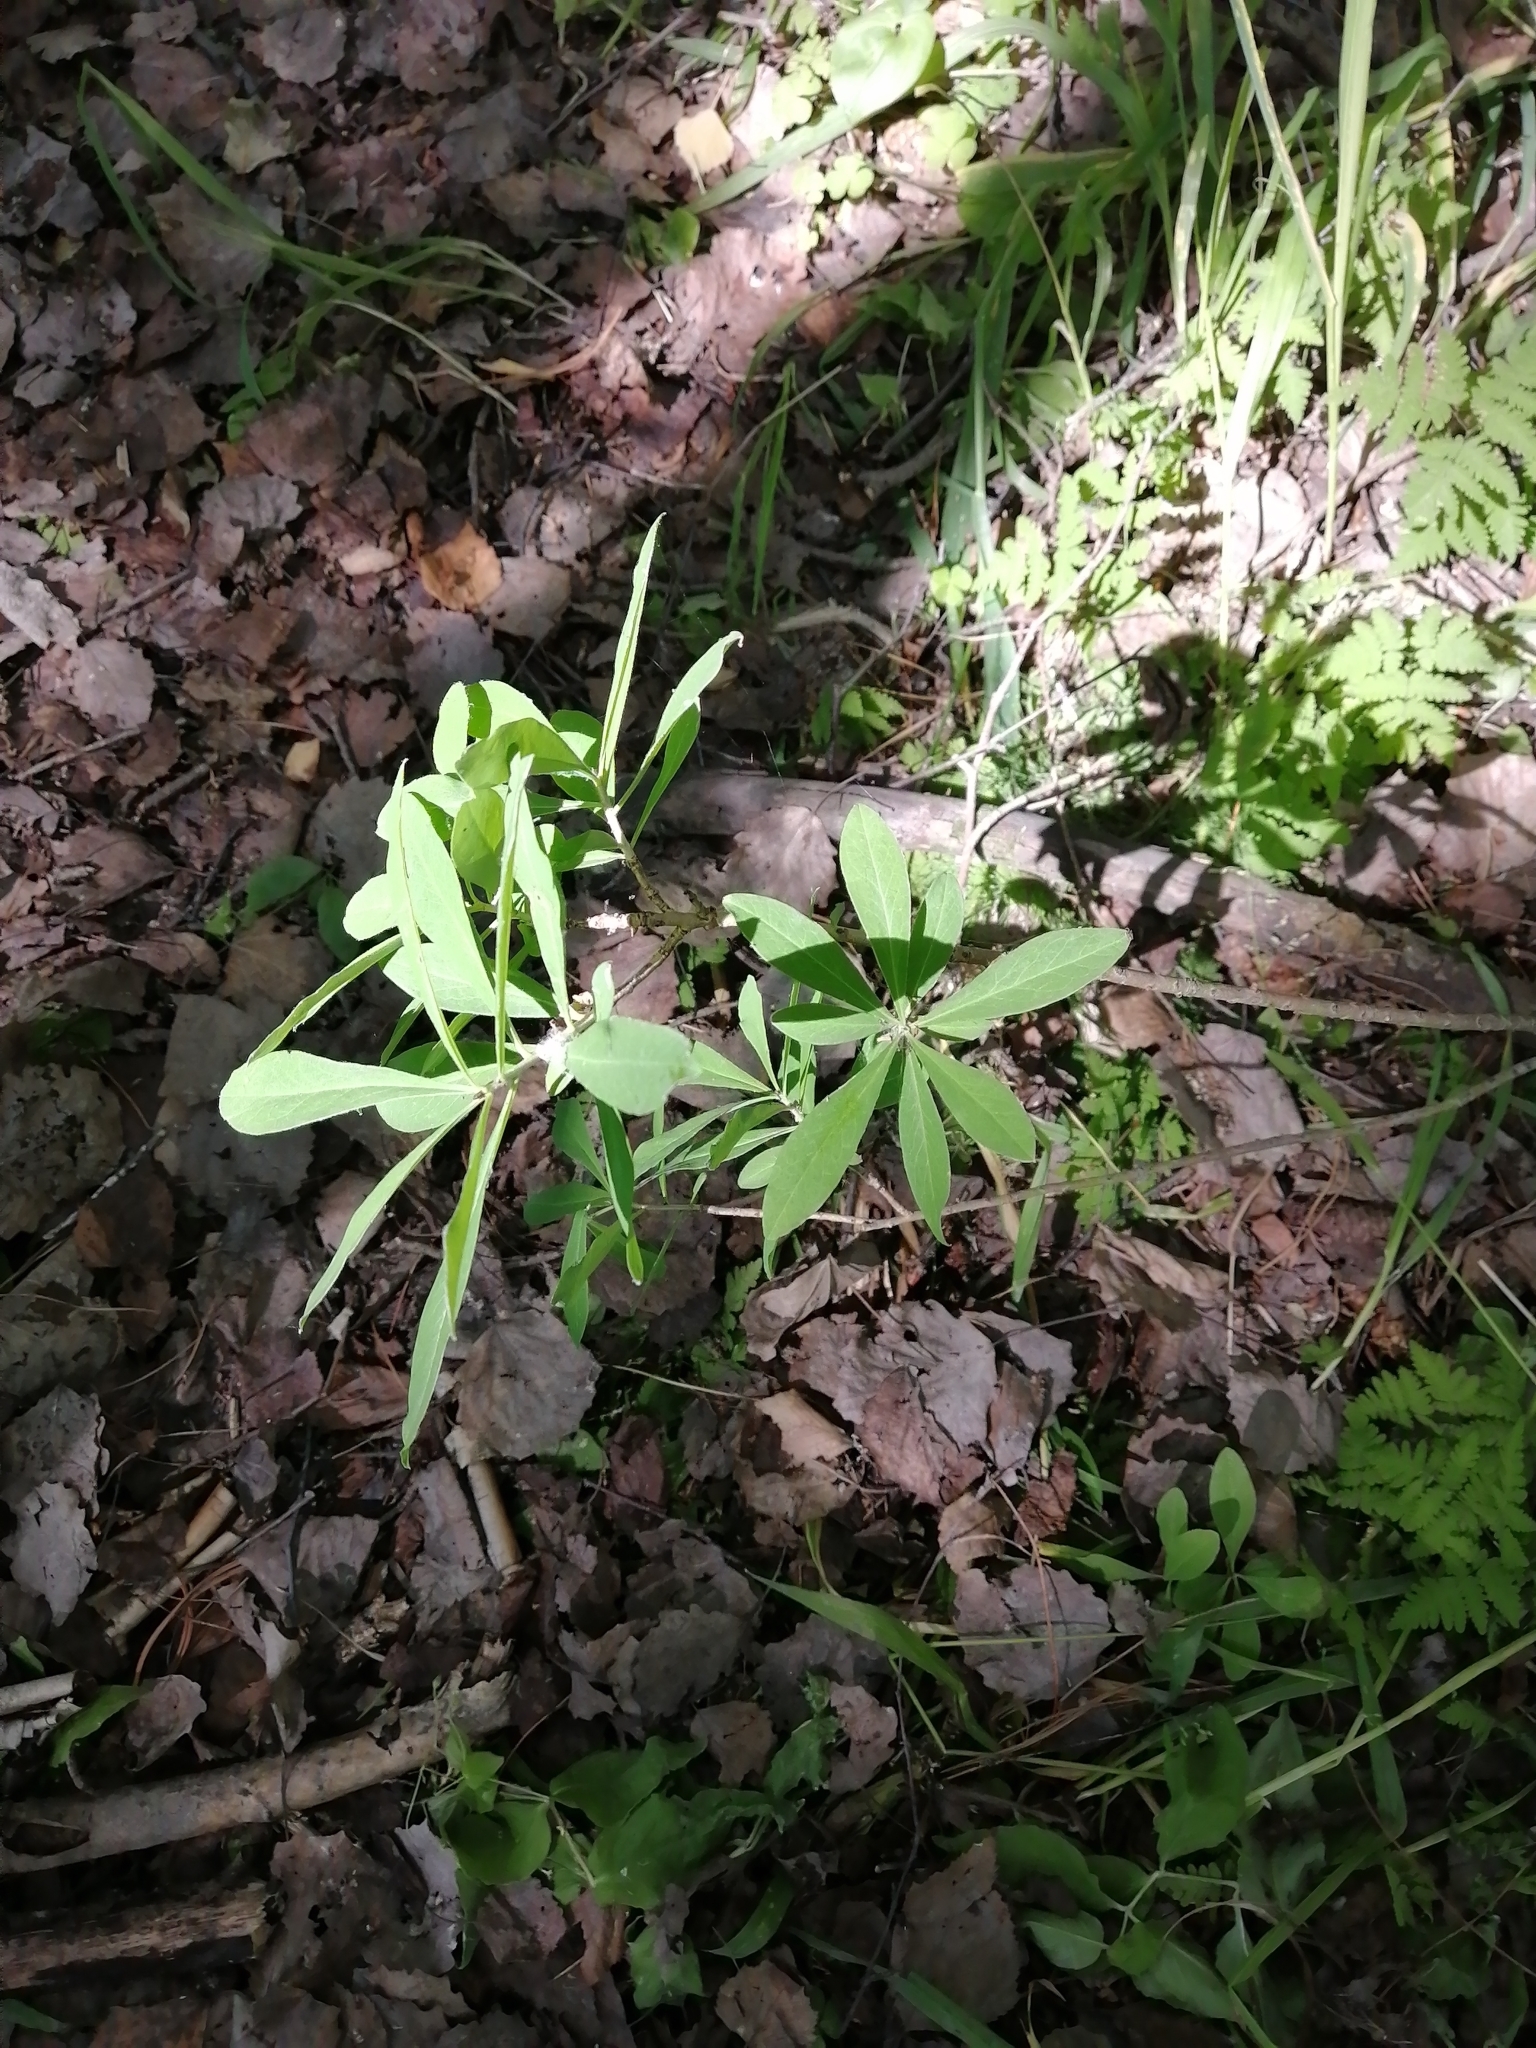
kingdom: Plantae
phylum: Tracheophyta
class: Magnoliopsida
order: Malvales
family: Thymelaeaceae
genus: Daphne
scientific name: Daphne mezereum
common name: Mezereon
